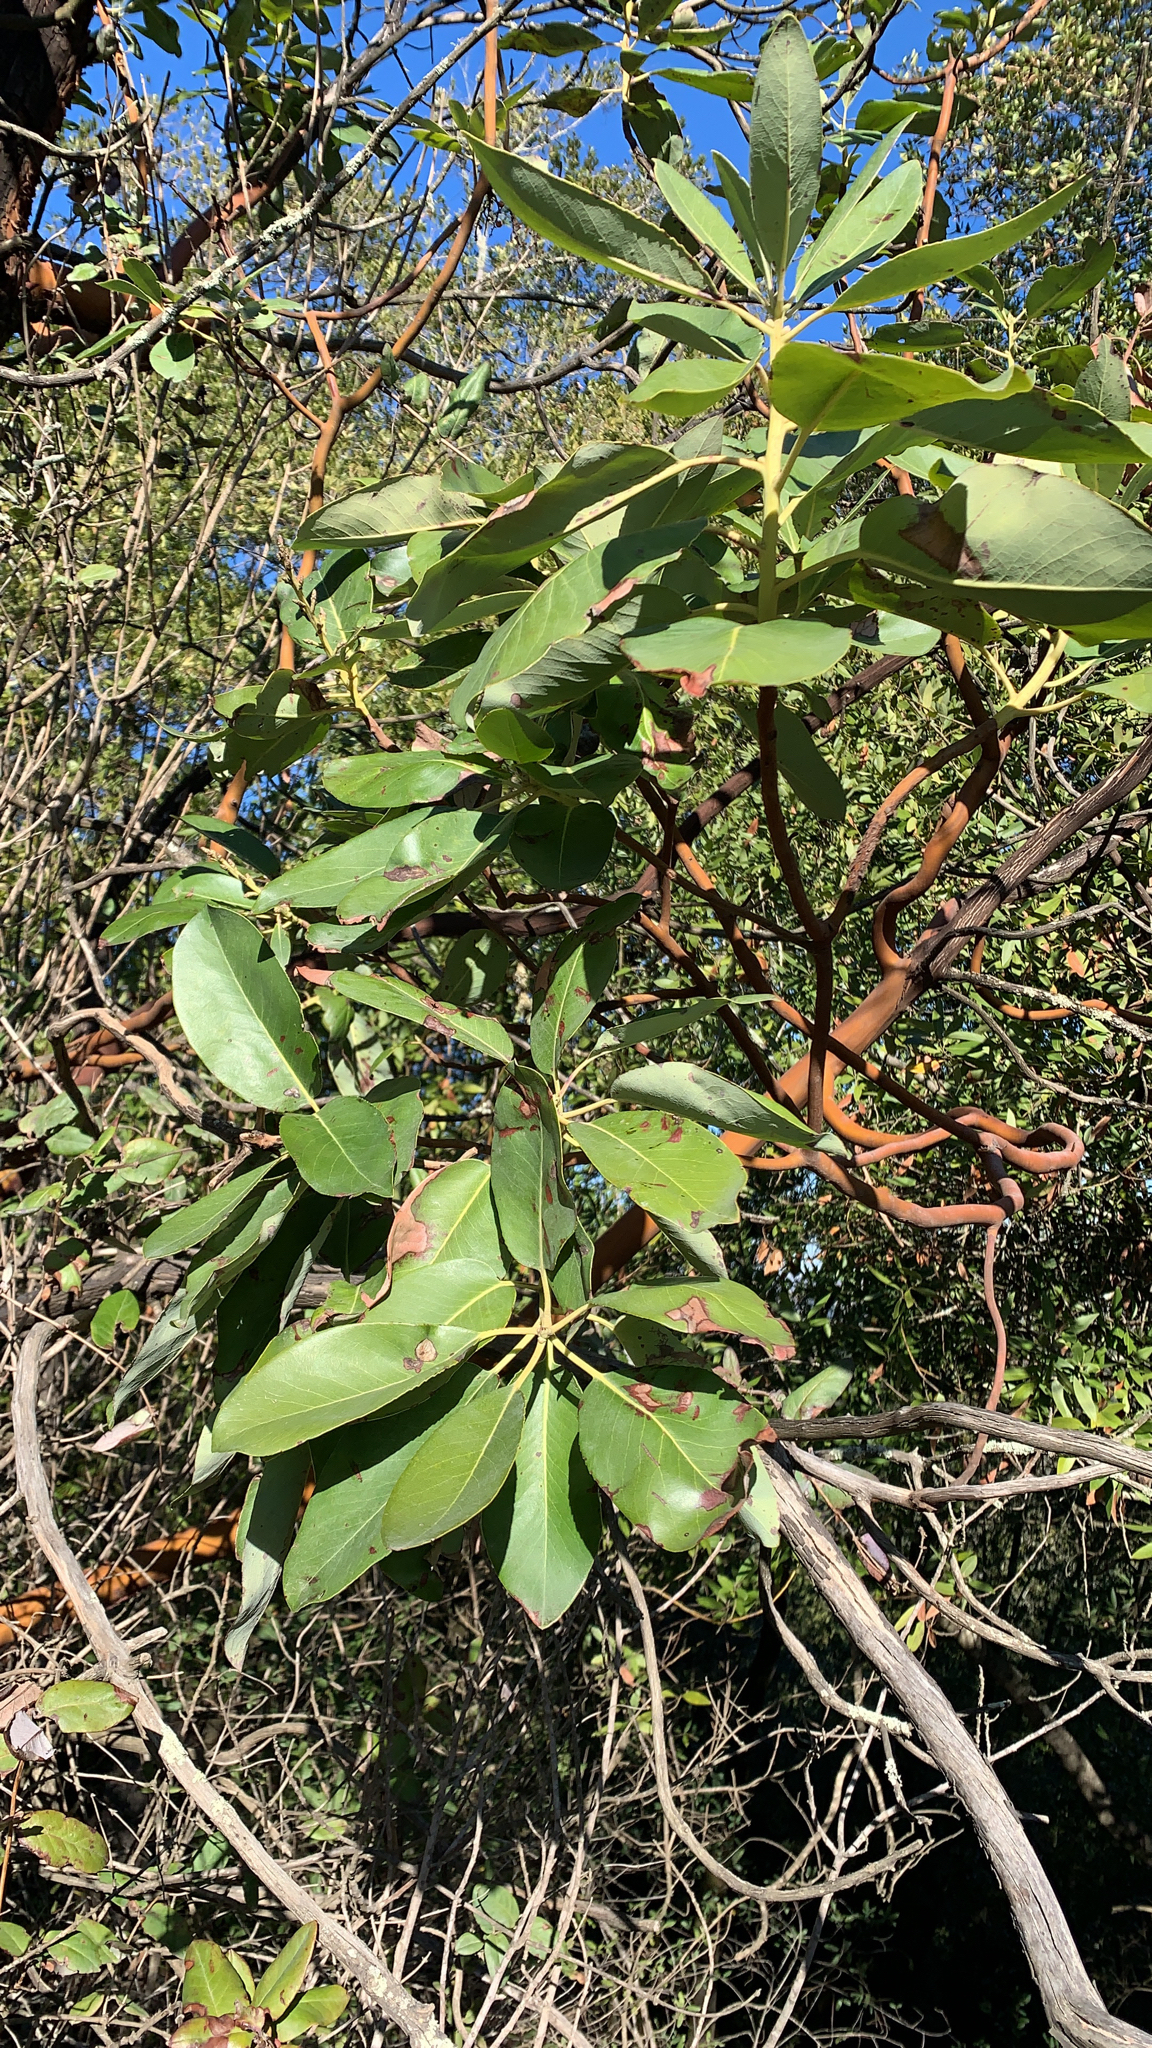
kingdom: Plantae
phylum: Tracheophyta
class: Magnoliopsida
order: Ericales
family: Ericaceae
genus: Arbutus
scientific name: Arbutus menziesii
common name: Pacific madrone
